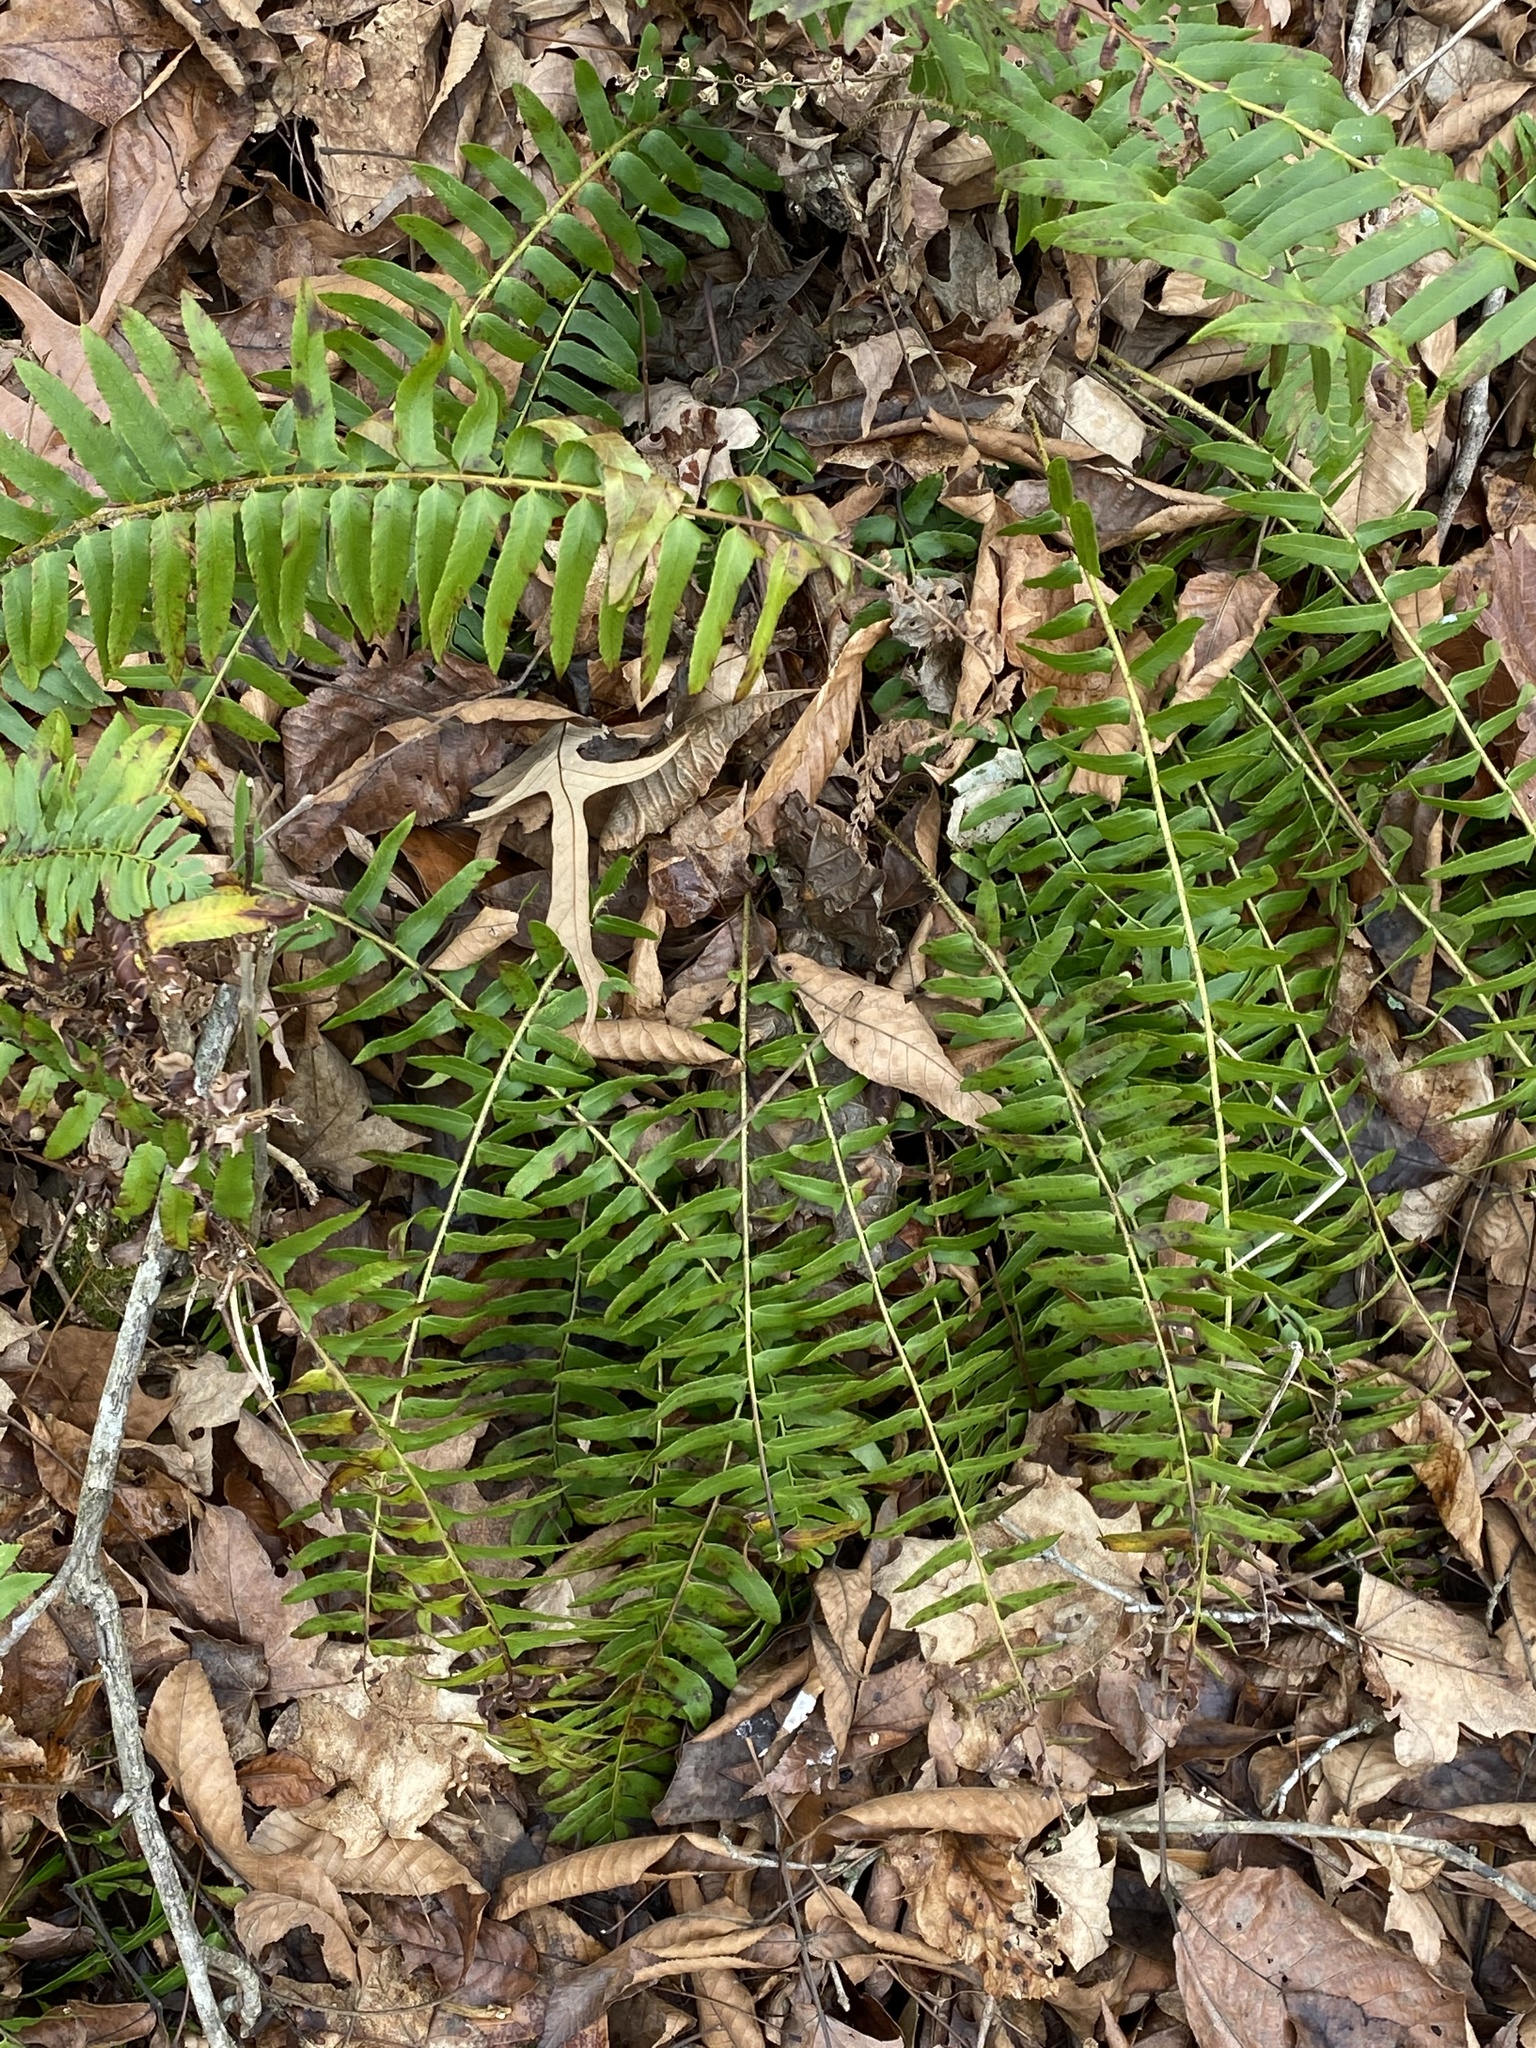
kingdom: Plantae
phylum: Tracheophyta
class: Polypodiopsida
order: Polypodiales
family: Dryopteridaceae
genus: Polystichum
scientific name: Polystichum acrostichoides
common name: Christmas fern
